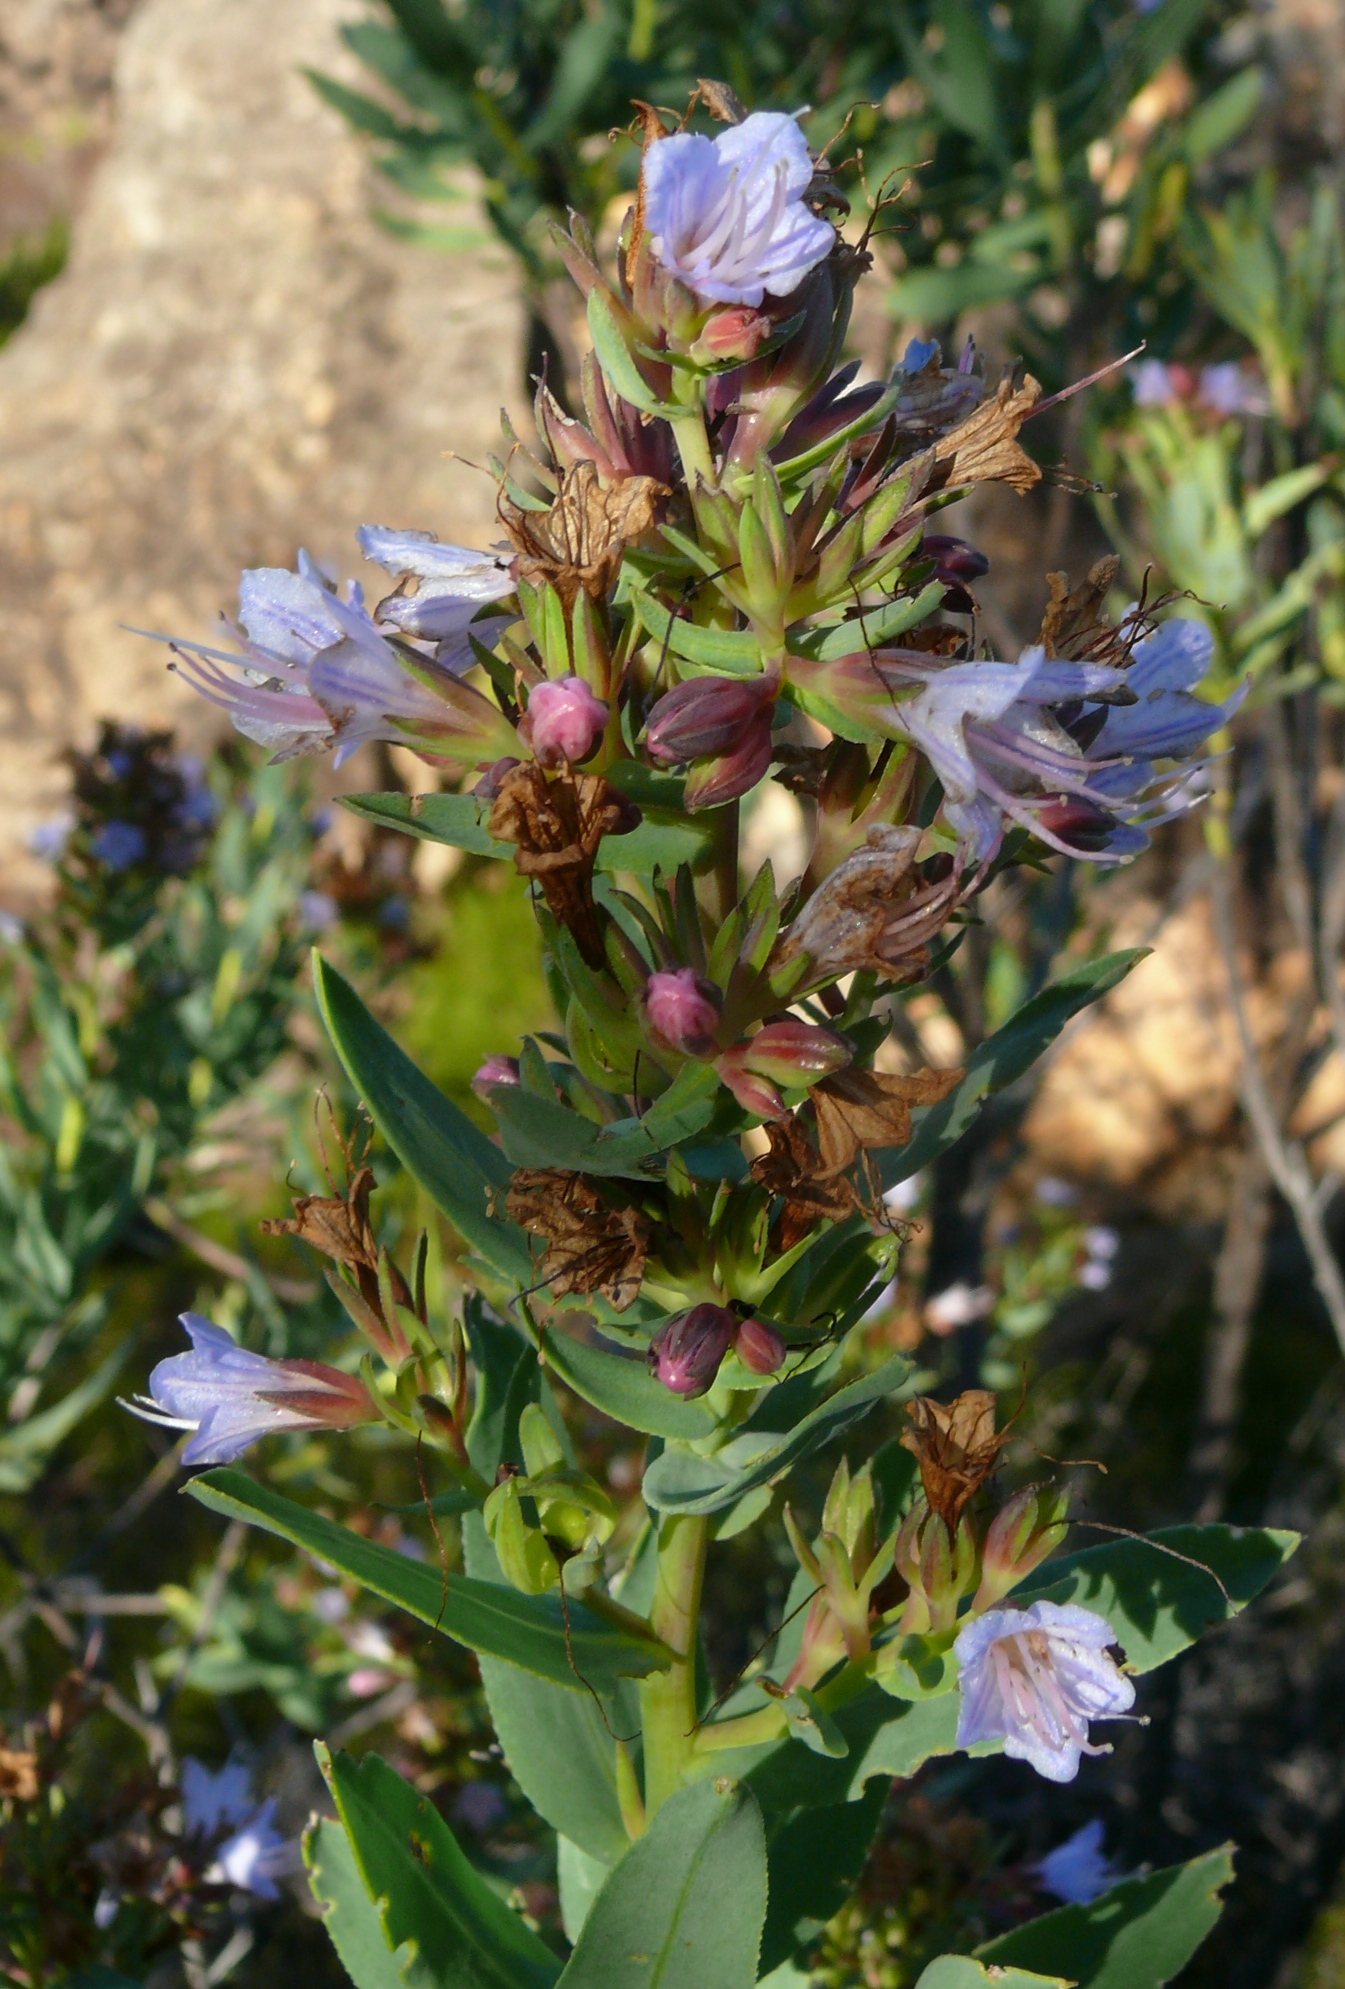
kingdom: Plantae
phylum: Tracheophyta
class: Magnoliopsida
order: Boraginales
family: Boraginaceae
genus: Lobostemon
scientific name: Lobostemon laevigatus
